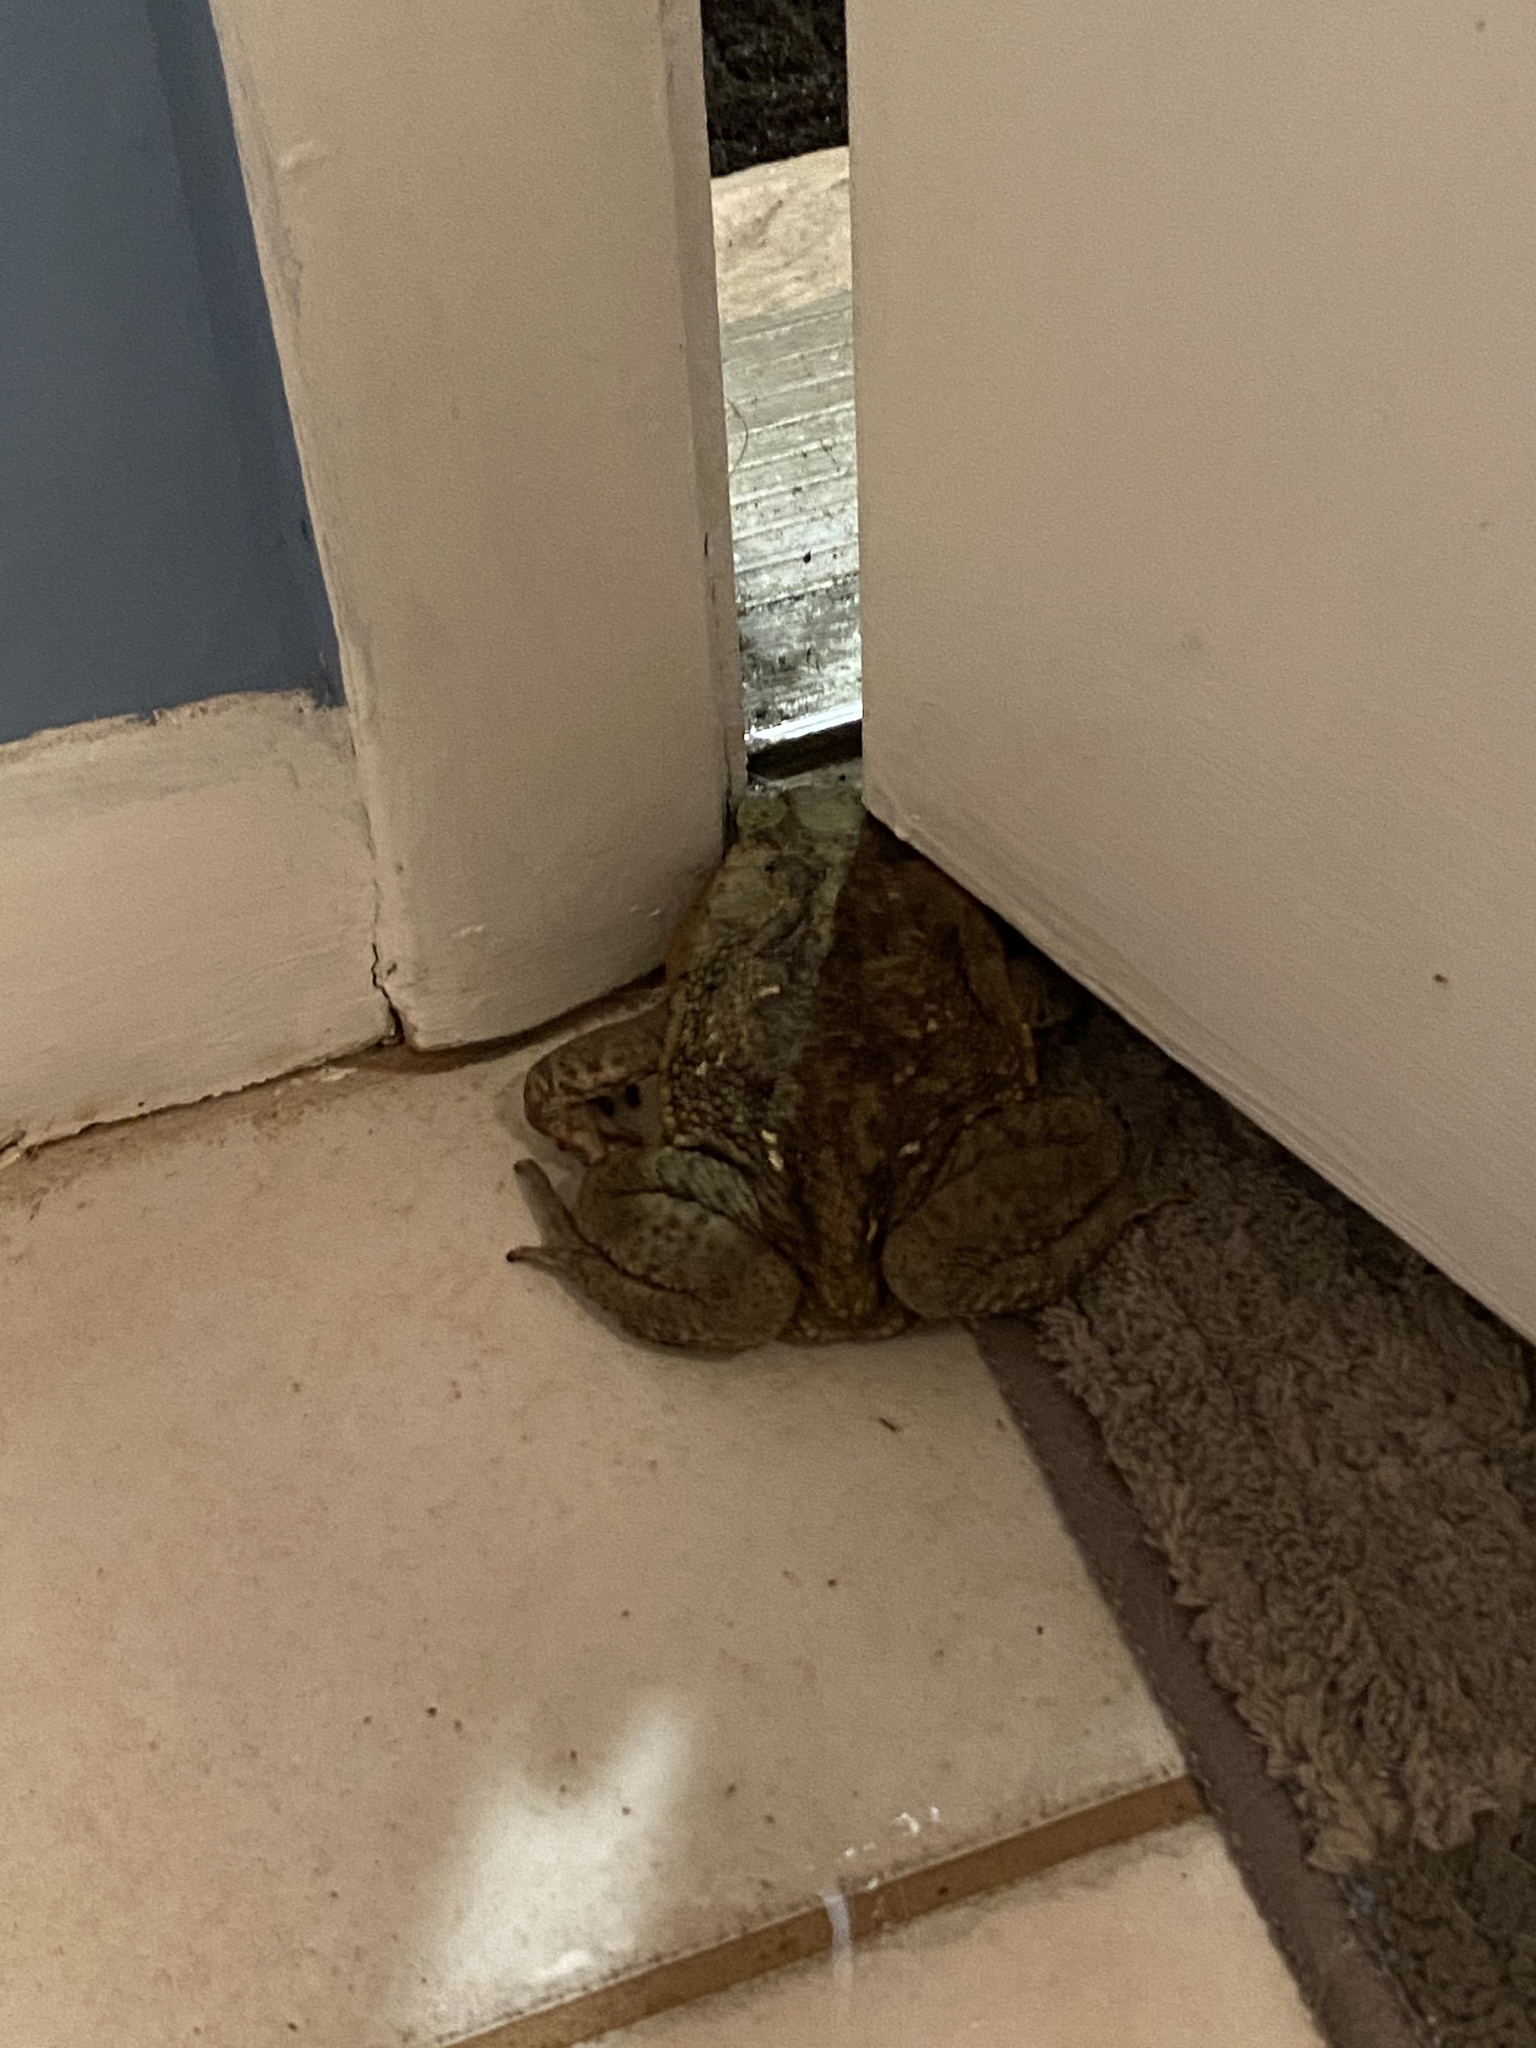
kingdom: Animalia
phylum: Chordata
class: Amphibia
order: Anura
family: Bufonidae
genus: Rhinella
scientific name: Rhinella marina
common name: Cane toad
